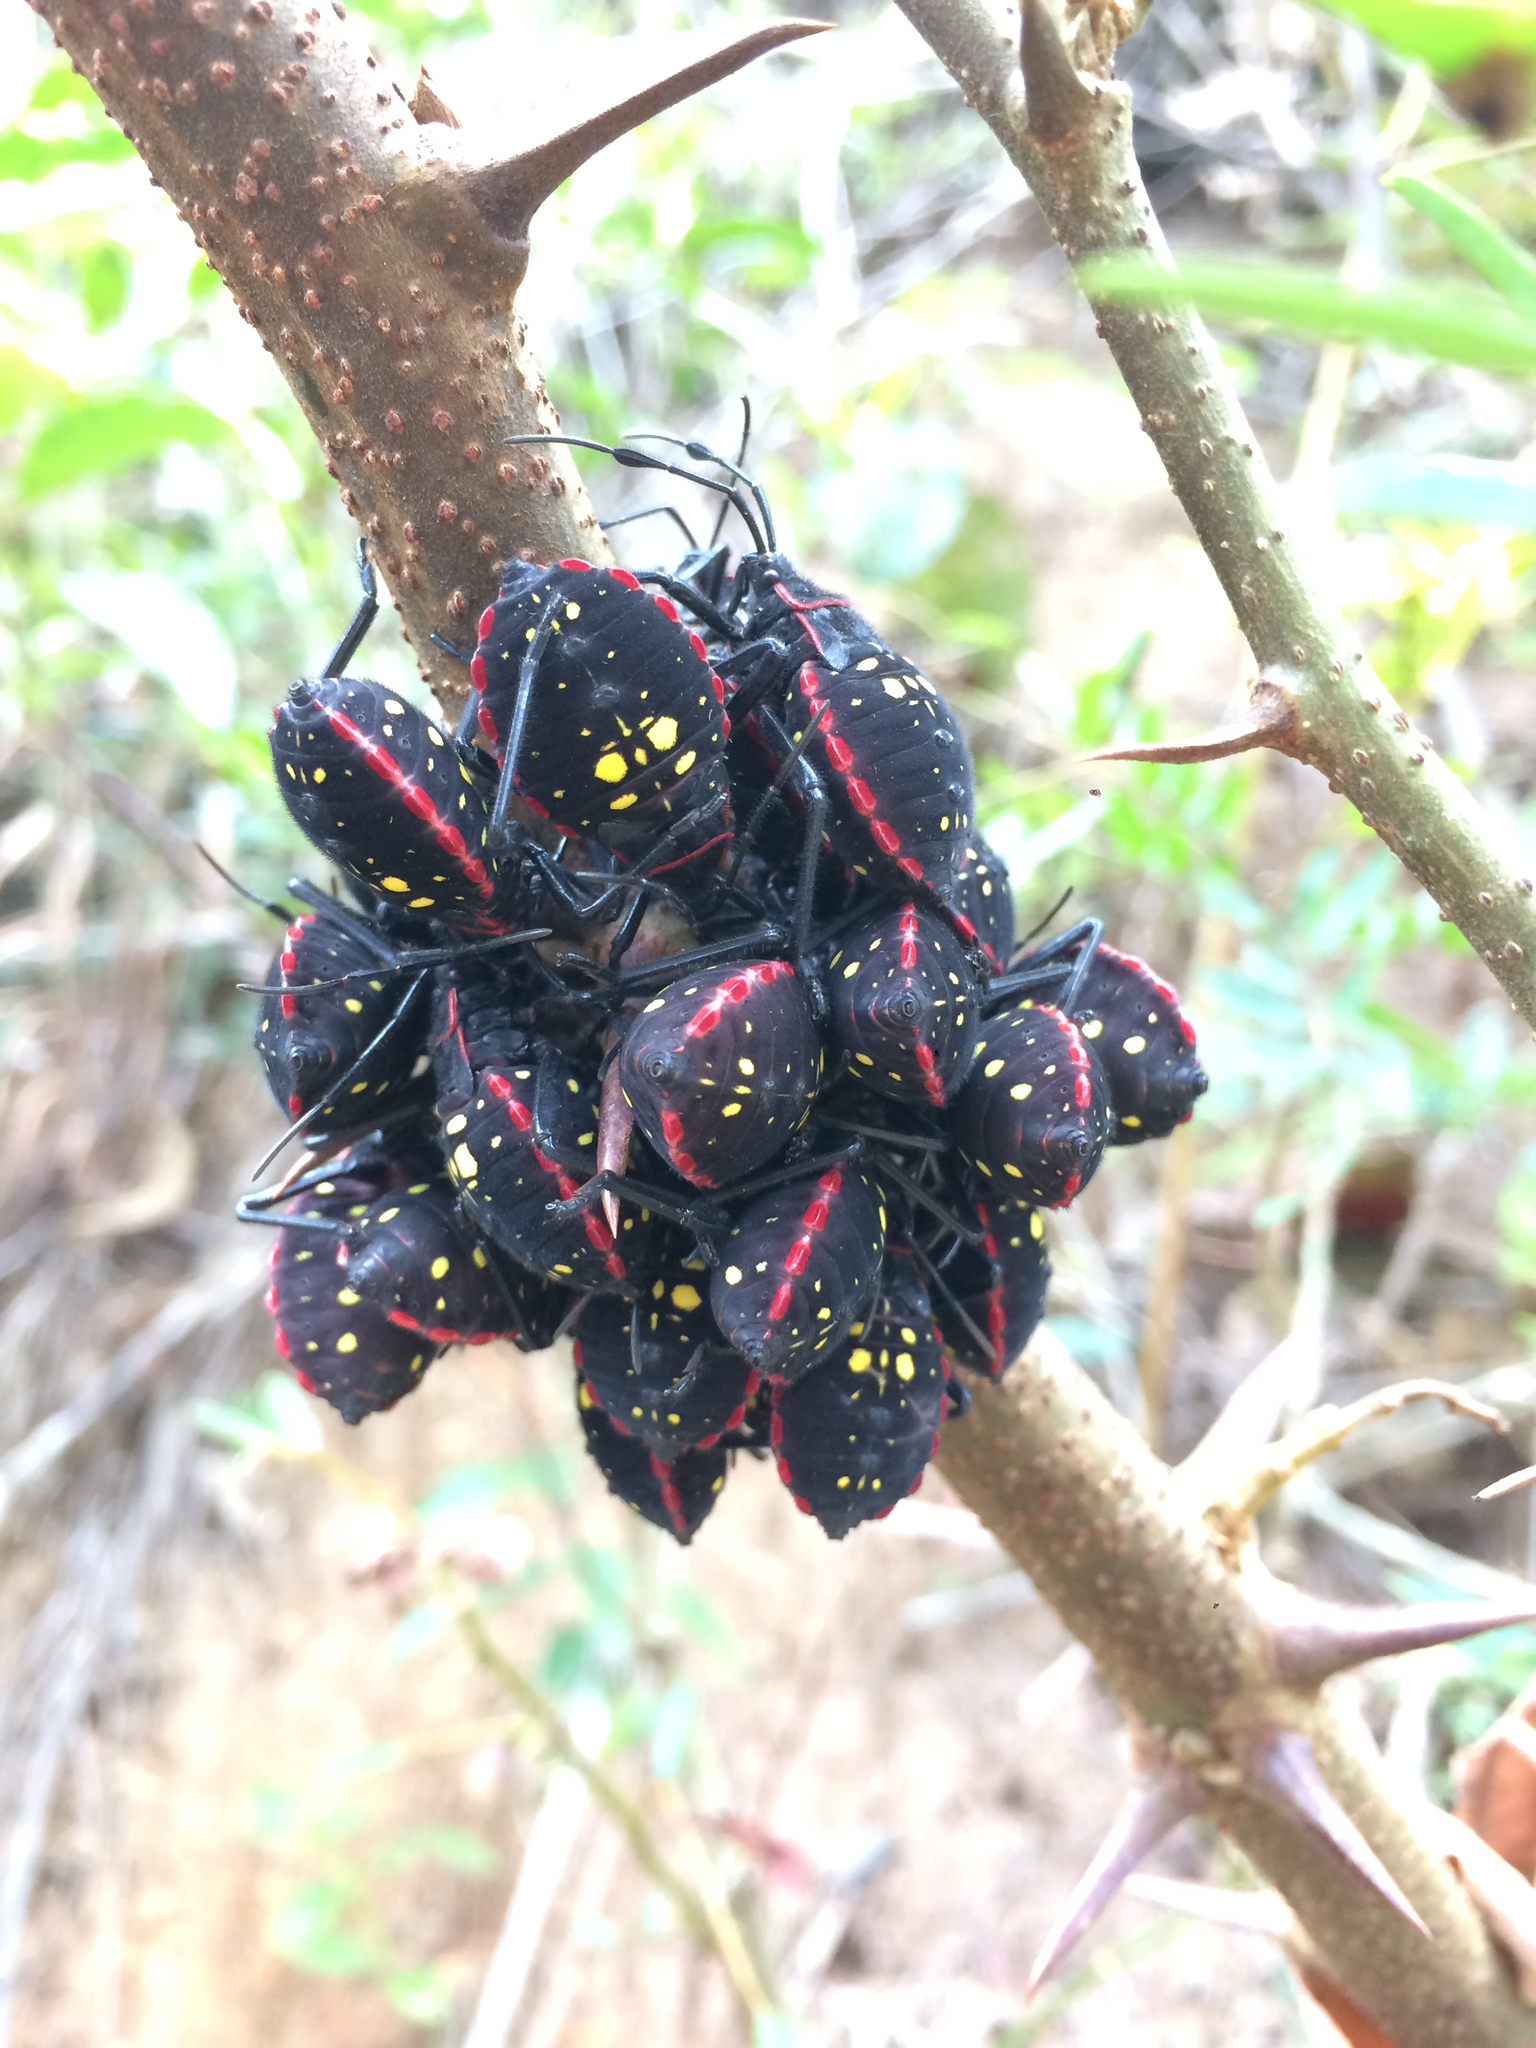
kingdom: Animalia
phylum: Arthropoda
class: Insecta
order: Hemiptera
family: Coreidae
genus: Pachylis
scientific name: Pachylis pharaonis
